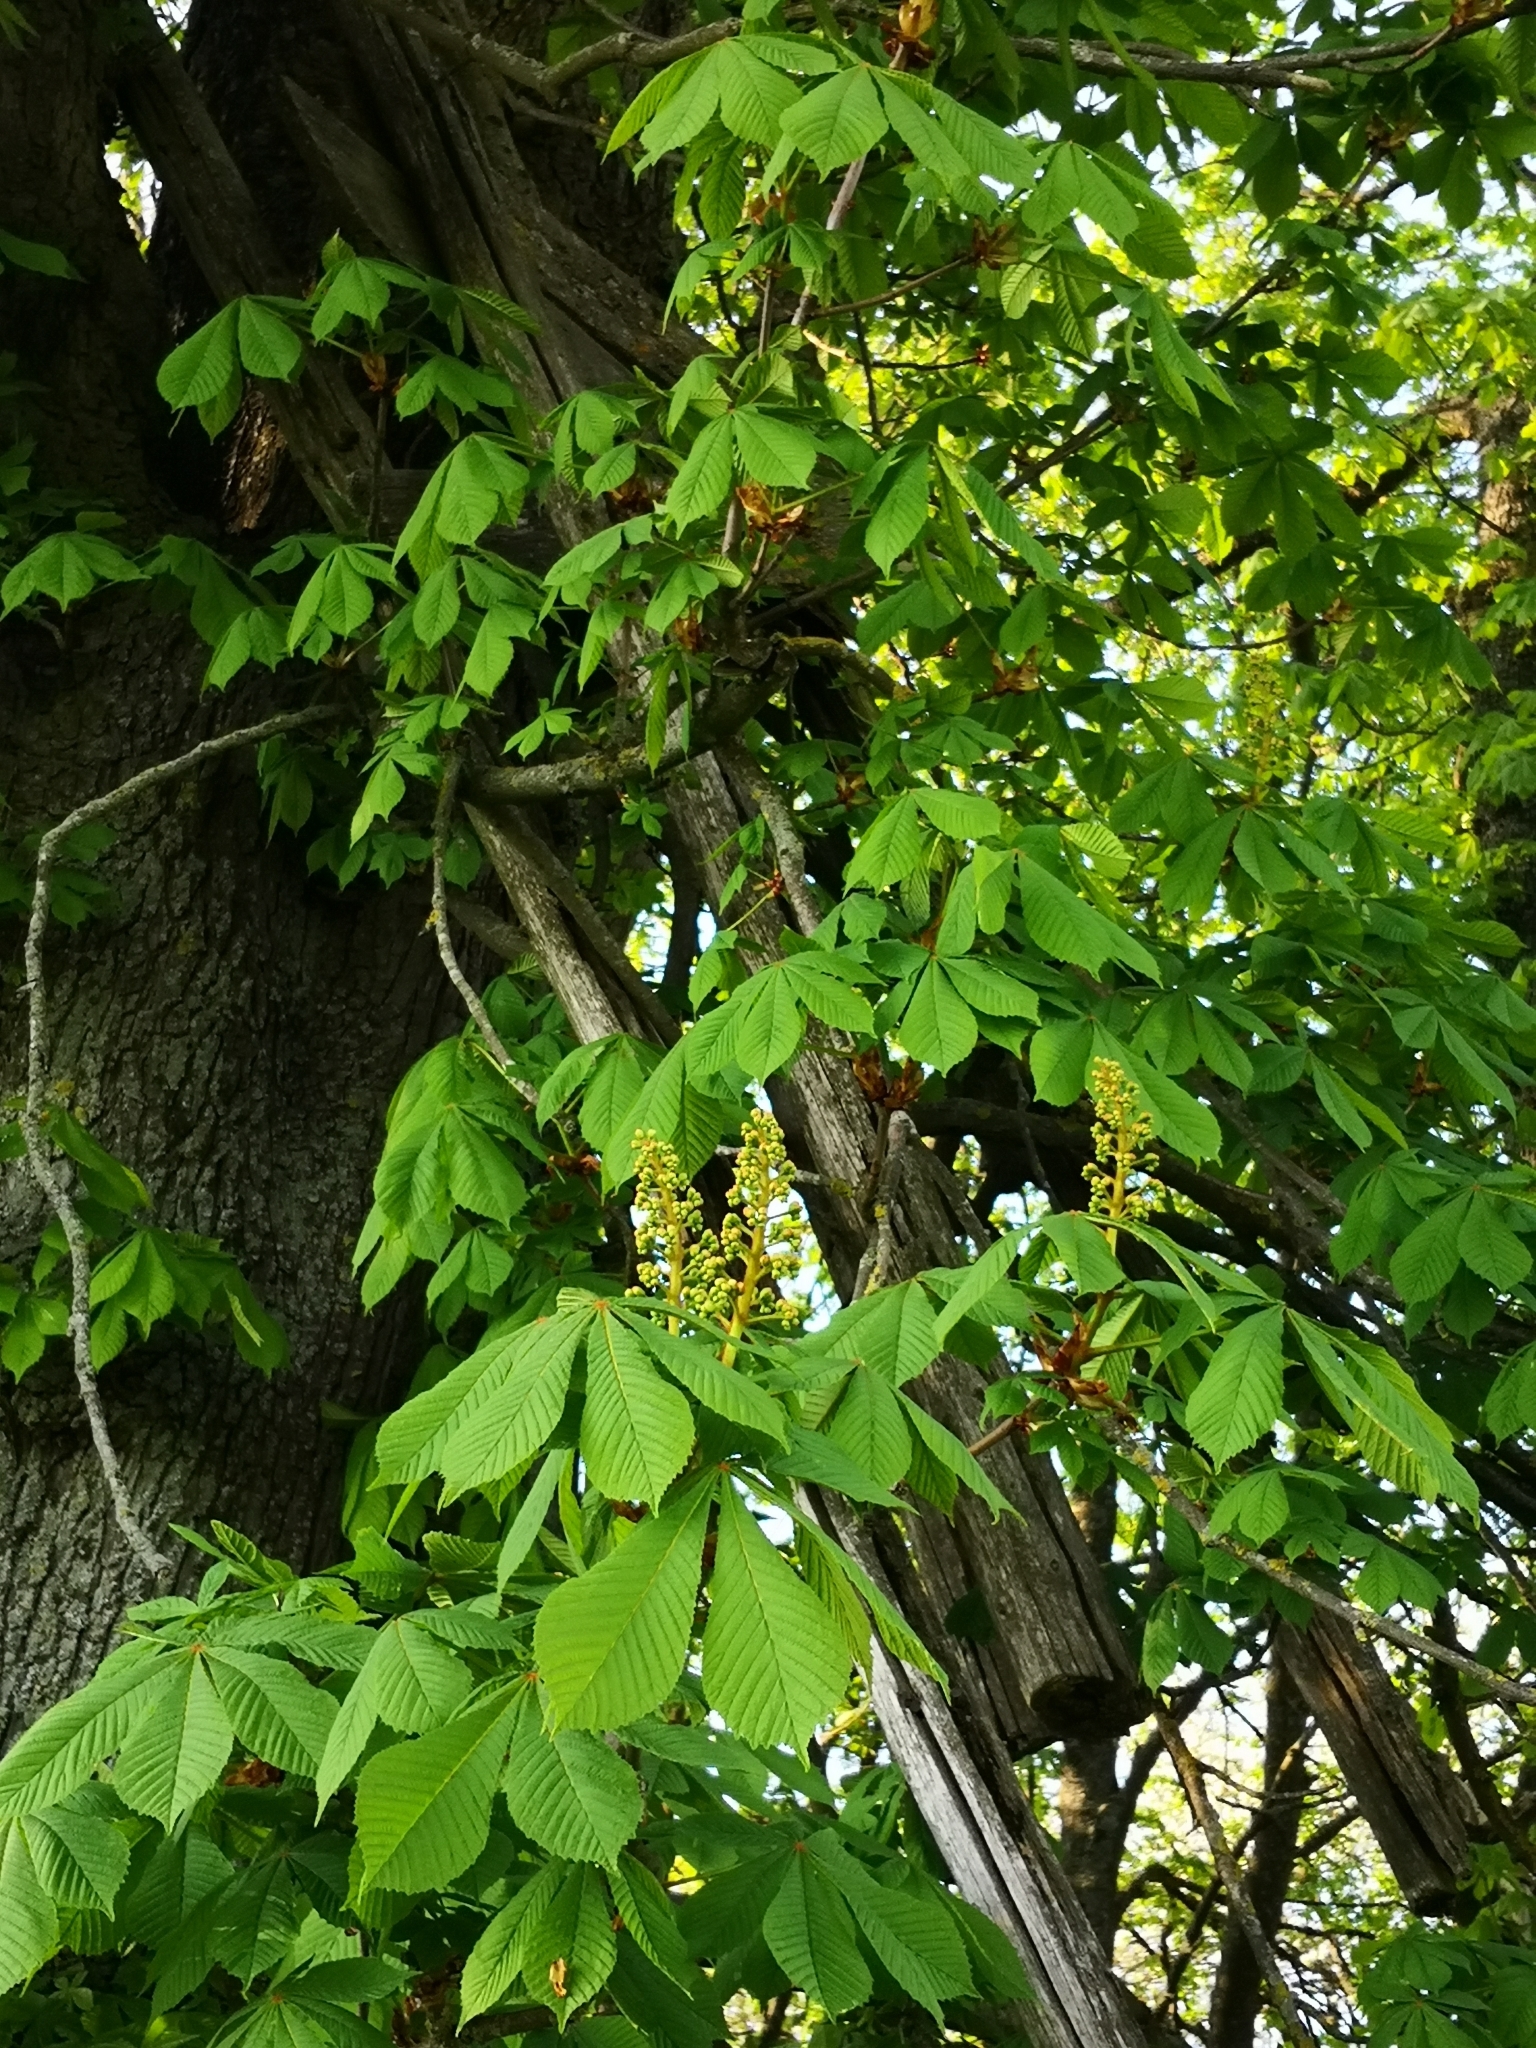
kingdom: Plantae
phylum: Tracheophyta
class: Magnoliopsida
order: Sapindales
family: Sapindaceae
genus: Aesculus
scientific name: Aesculus hippocastanum
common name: Horse-chestnut
